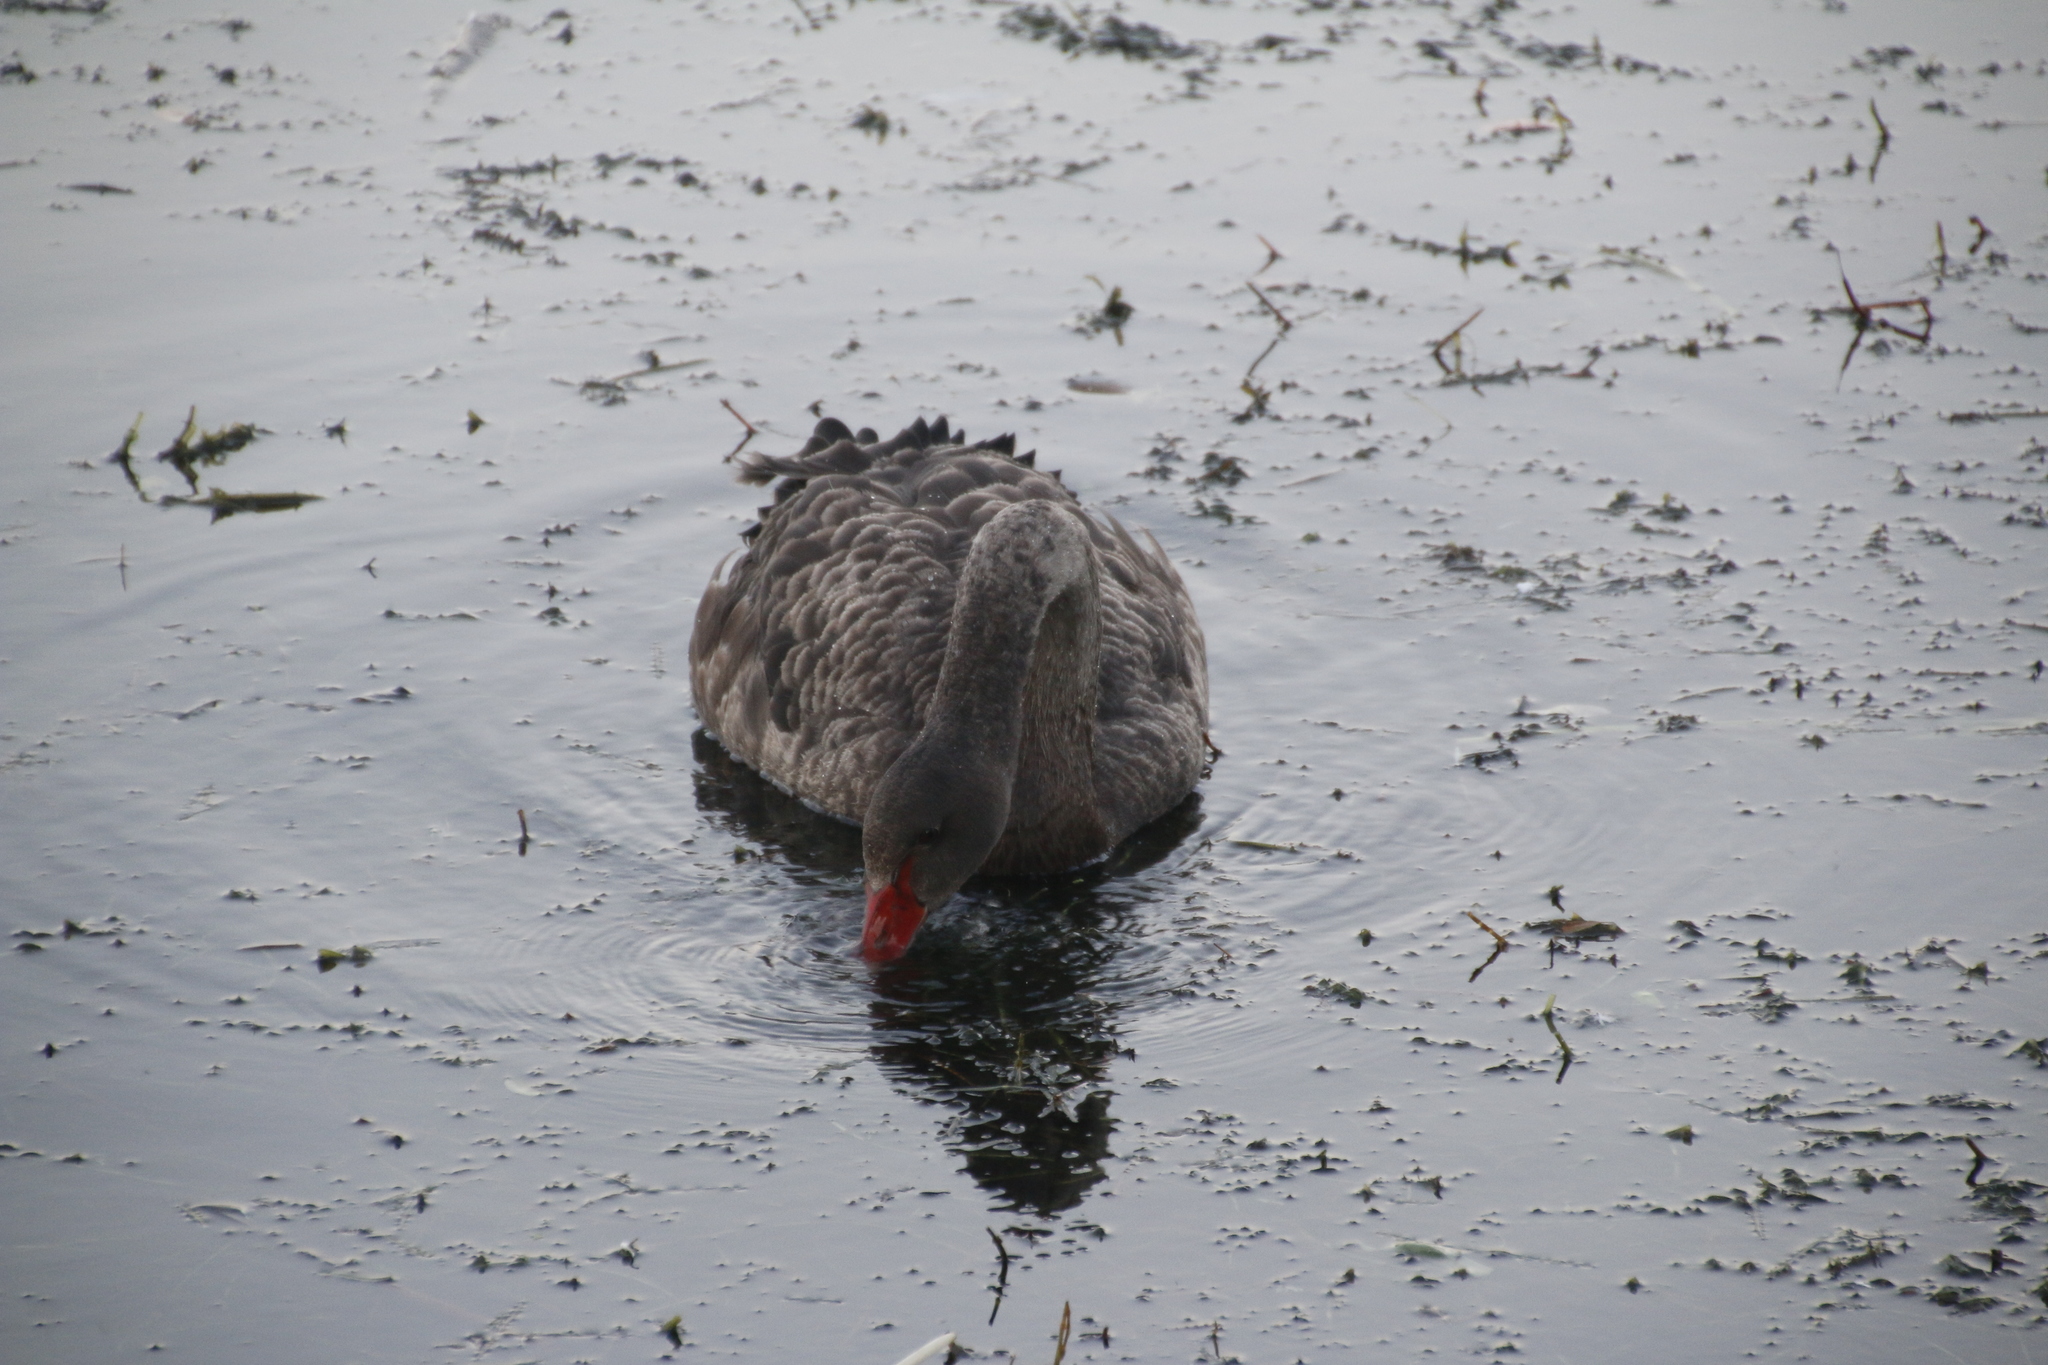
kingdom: Animalia
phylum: Chordata
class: Aves
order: Anseriformes
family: Anatidae
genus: Cygnus
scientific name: Cygnus atratus
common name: Black swan
